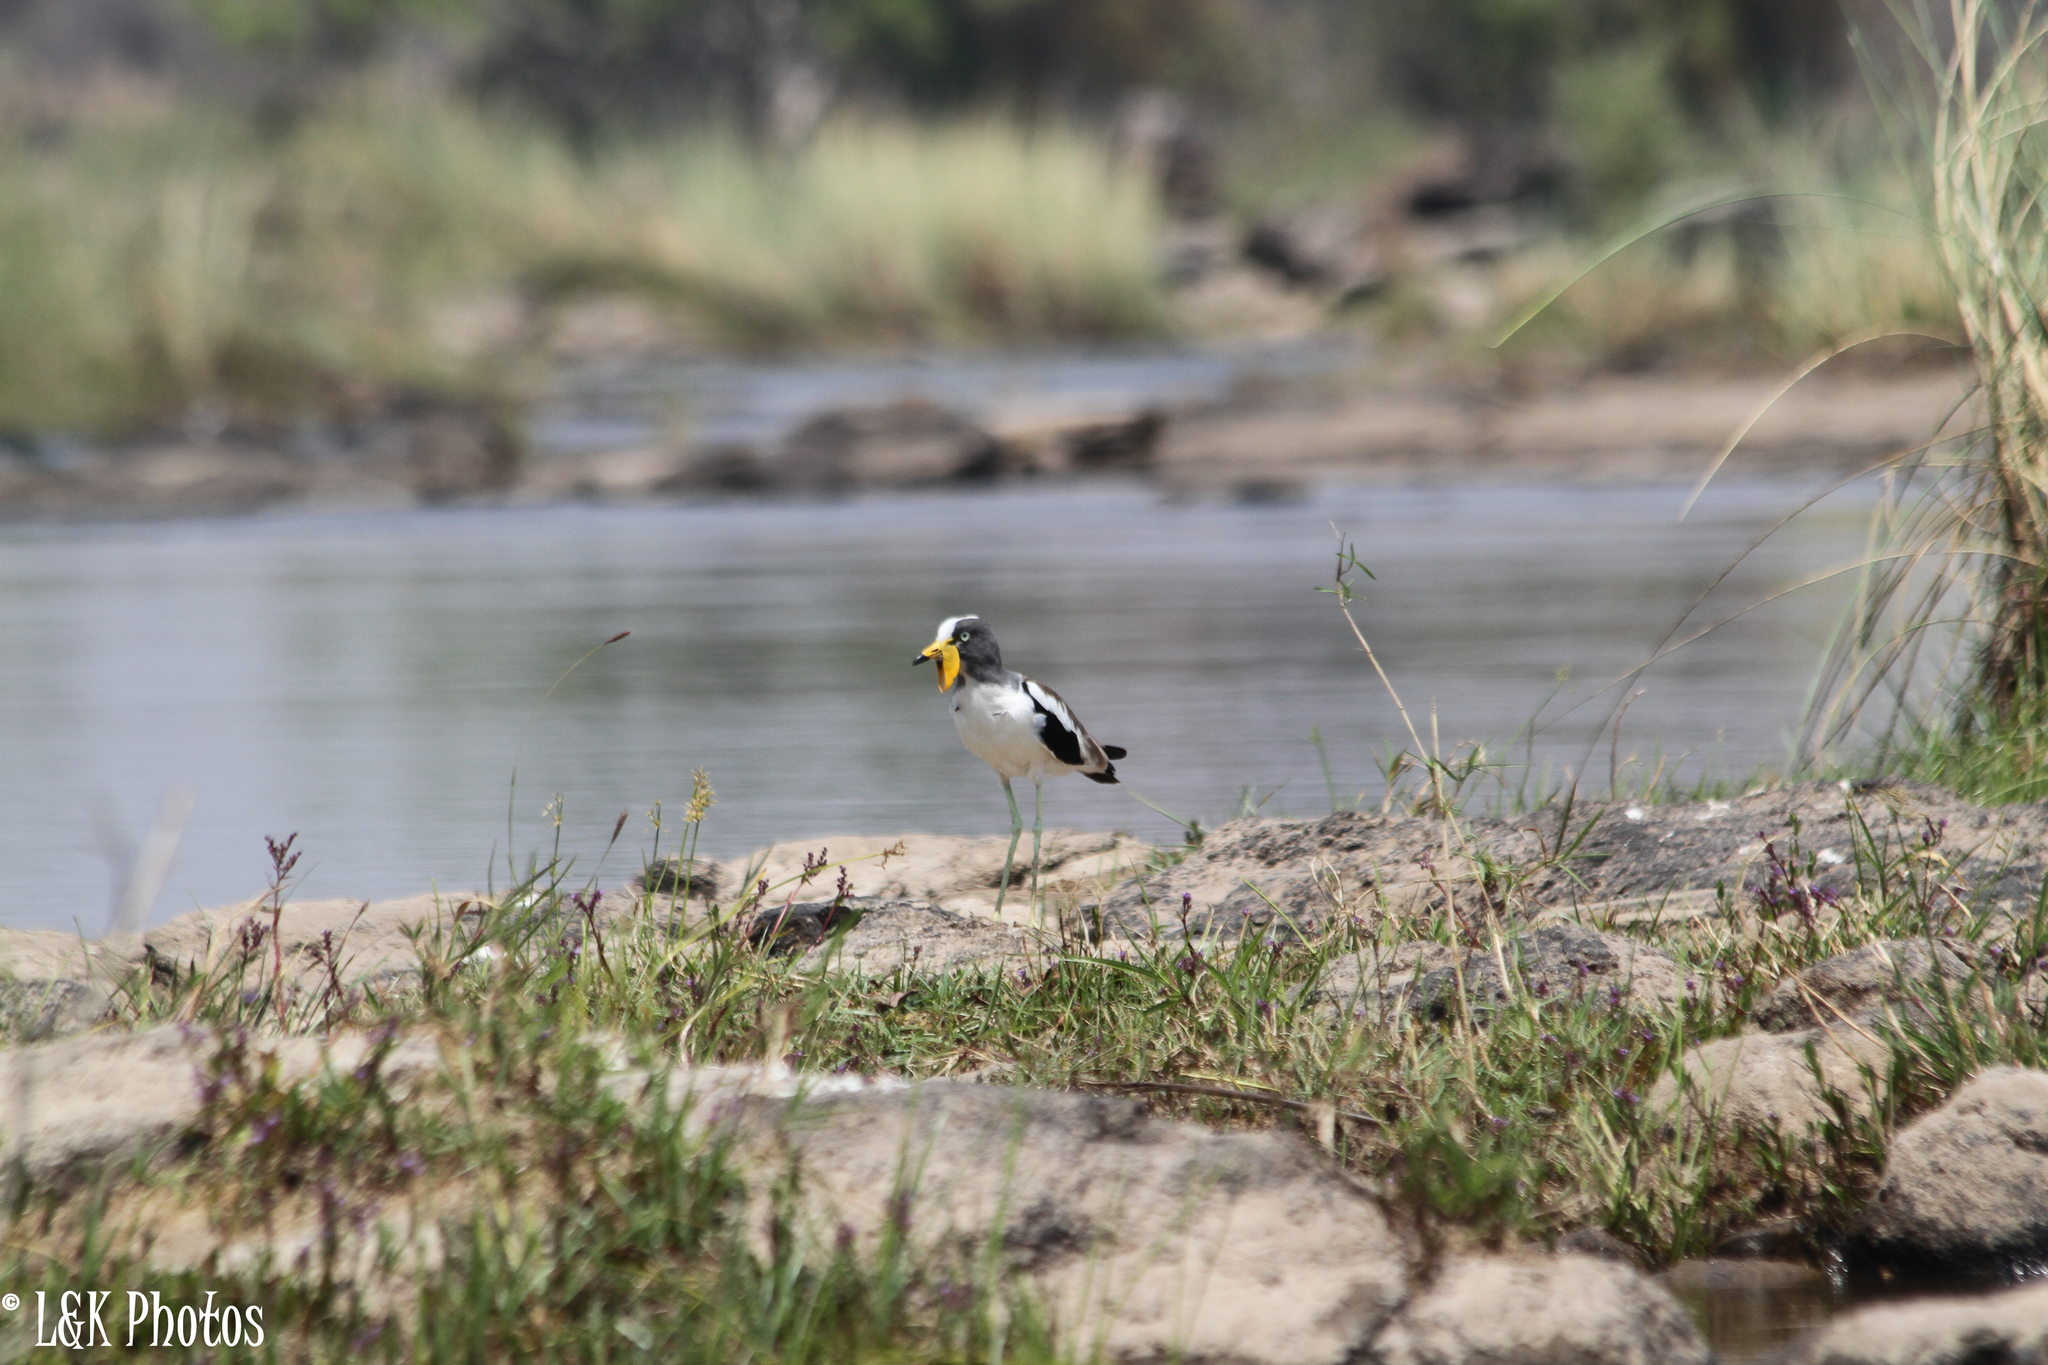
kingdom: Animalia
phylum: Chordata
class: Aves
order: Charadriiformes
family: Charadriidae
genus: Vanellus
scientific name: Vanellus albiceps
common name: White-crowned lapwing
